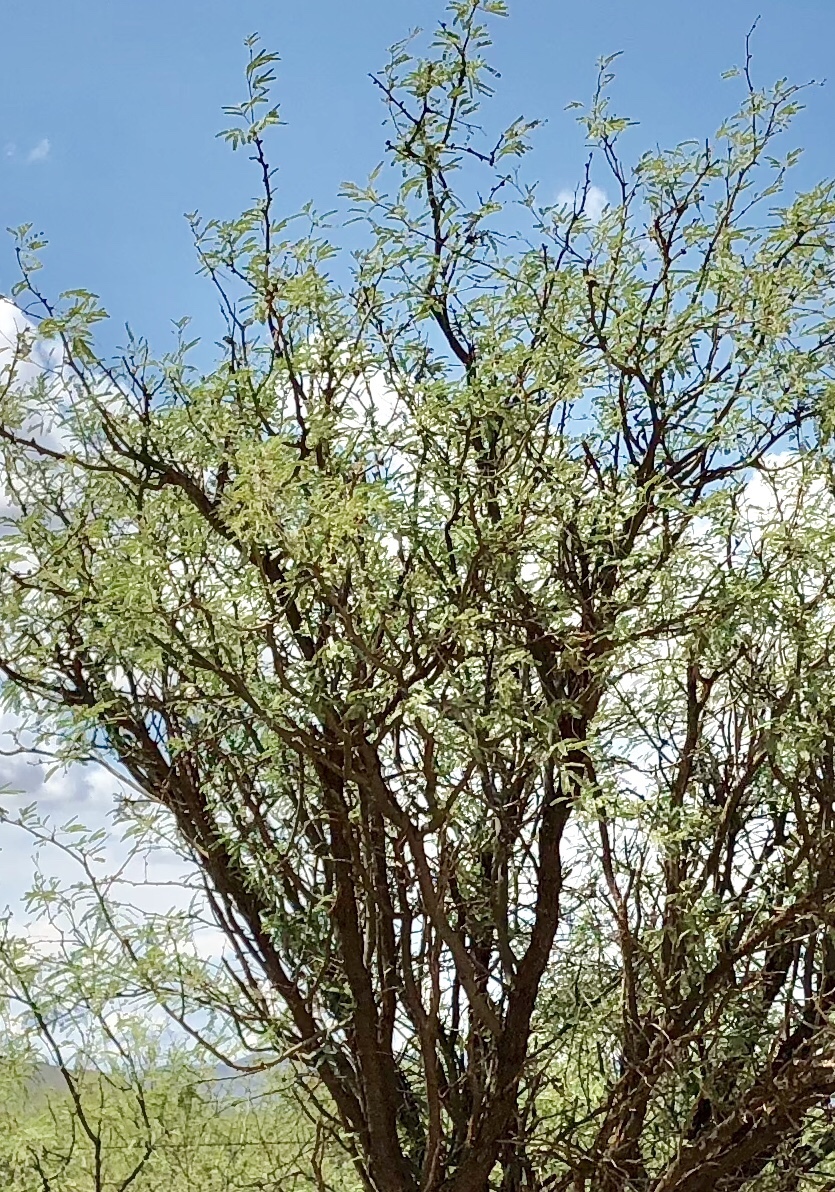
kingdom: Plantae
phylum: Tracheophyta
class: Magnoliopsida
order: Fabales
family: Fabaceae
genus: Prosopis
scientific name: Prosopis glandulosa
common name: Honey mesquite
